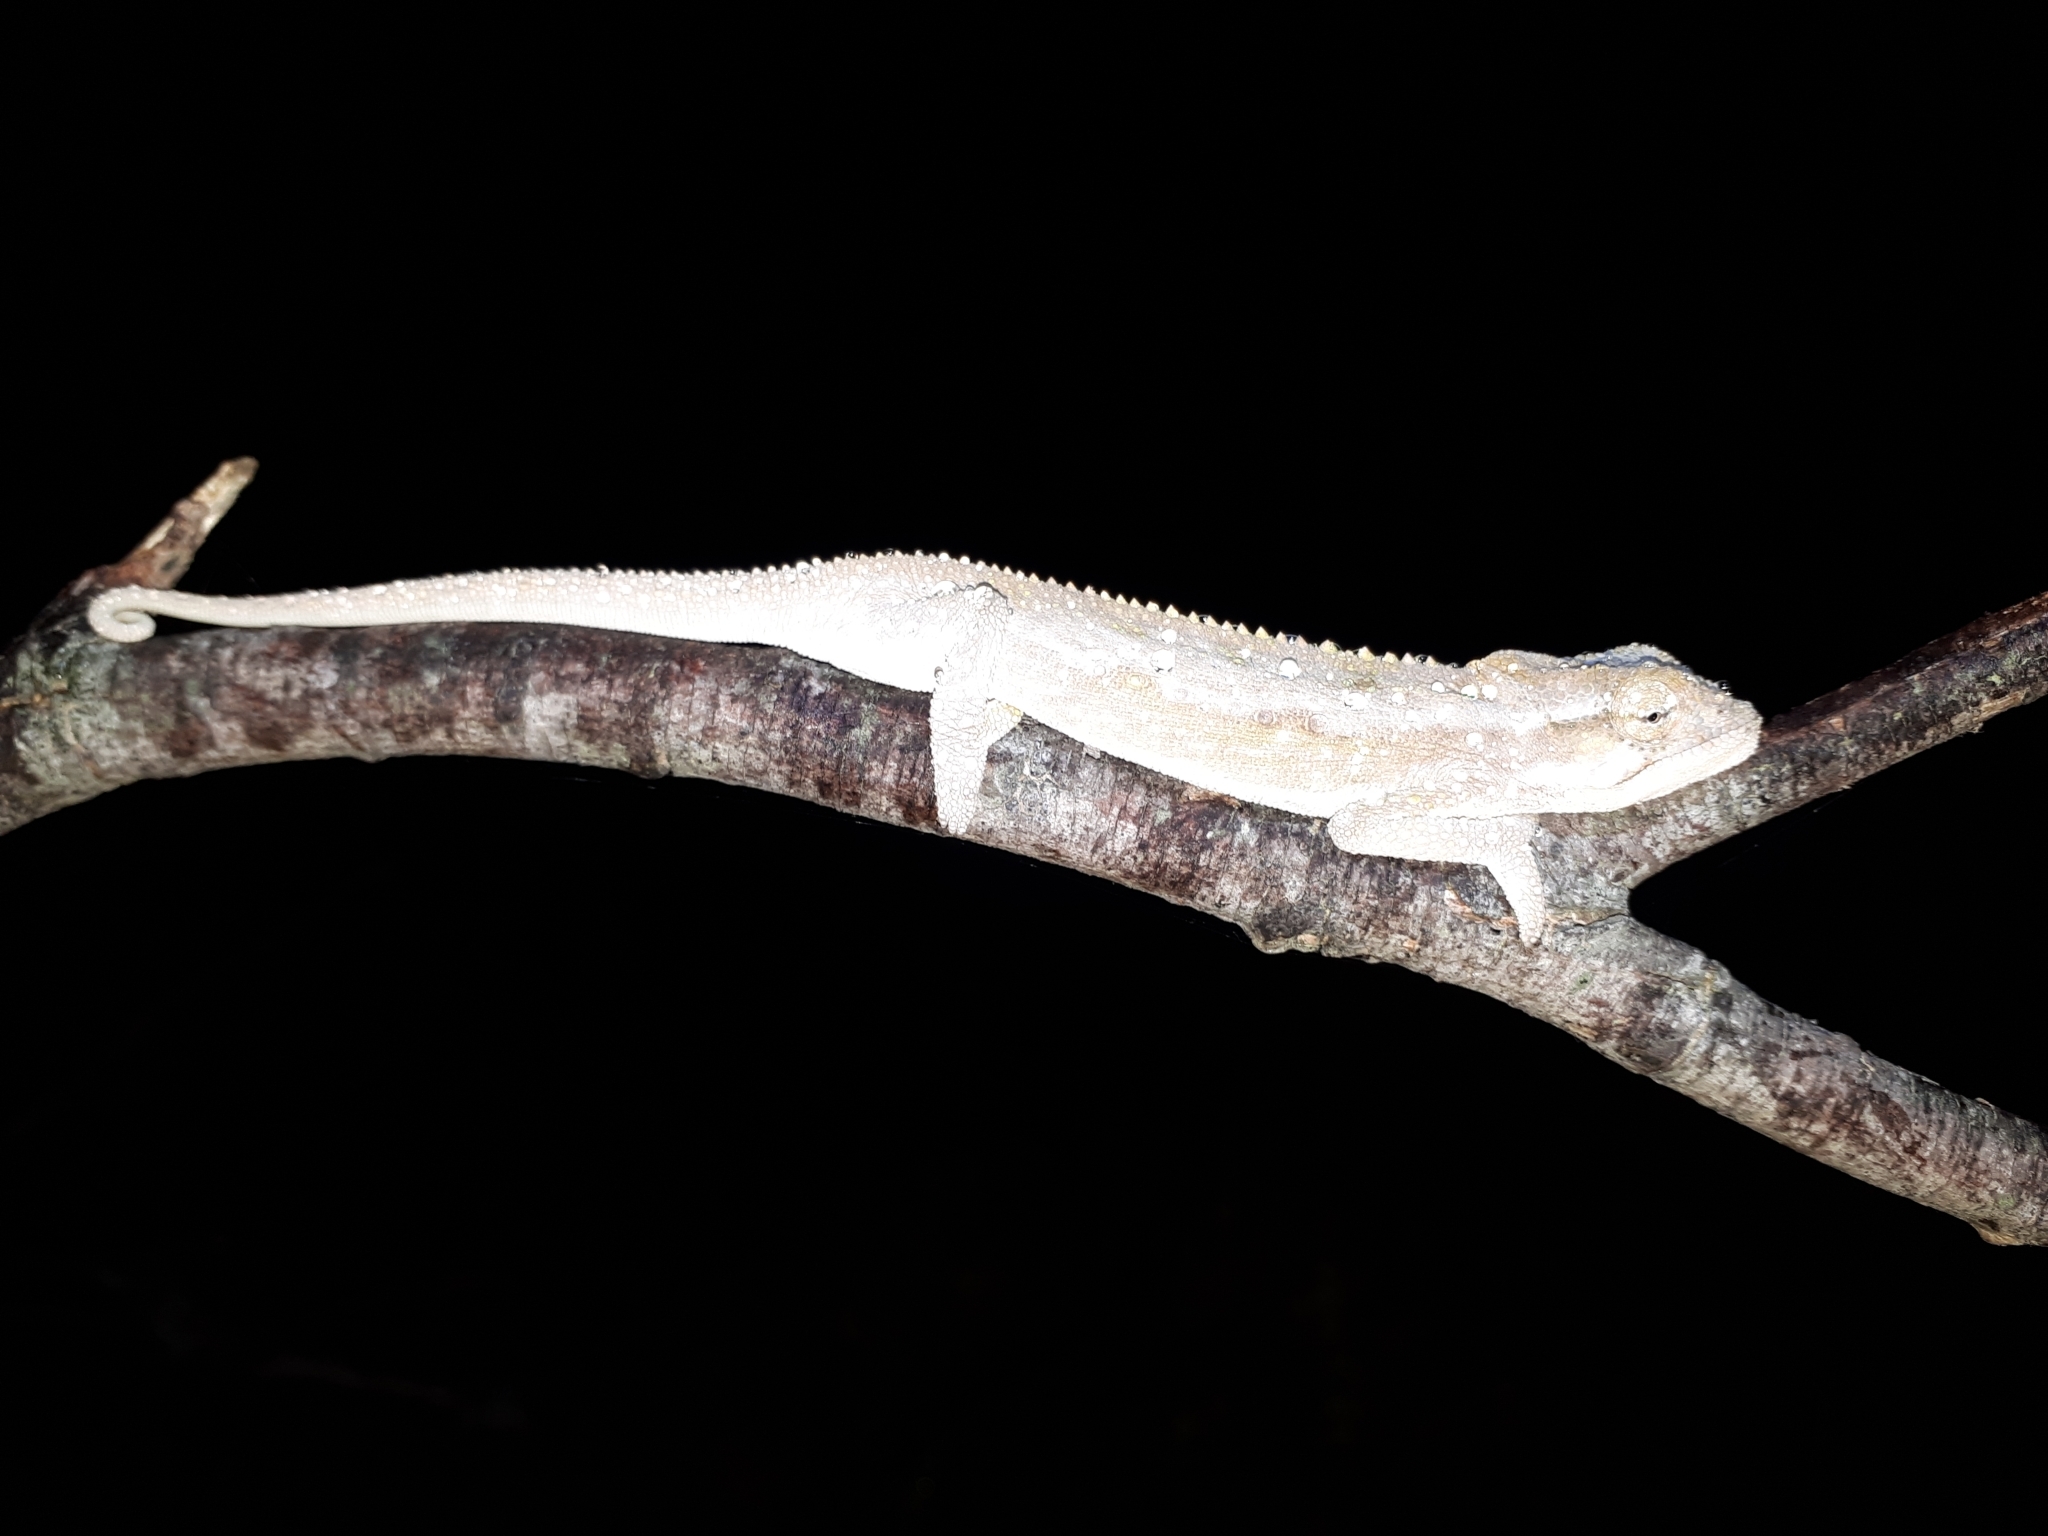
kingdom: Animalia
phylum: Chordata
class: Squamata
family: Chamaeleonidae
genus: Bradypodion
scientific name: Bradypodion pumilum
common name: Cape dwarf chameleon
